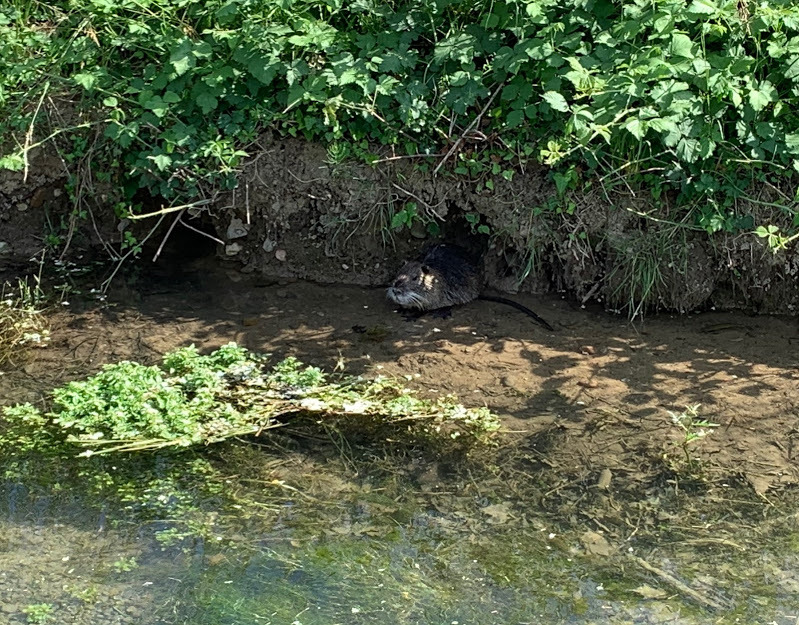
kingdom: Animalia
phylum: Chordata
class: Mammalia
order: Rodentia
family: Myocastoridae
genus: Myocastor
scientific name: Myocastor coypus
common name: Coypu
